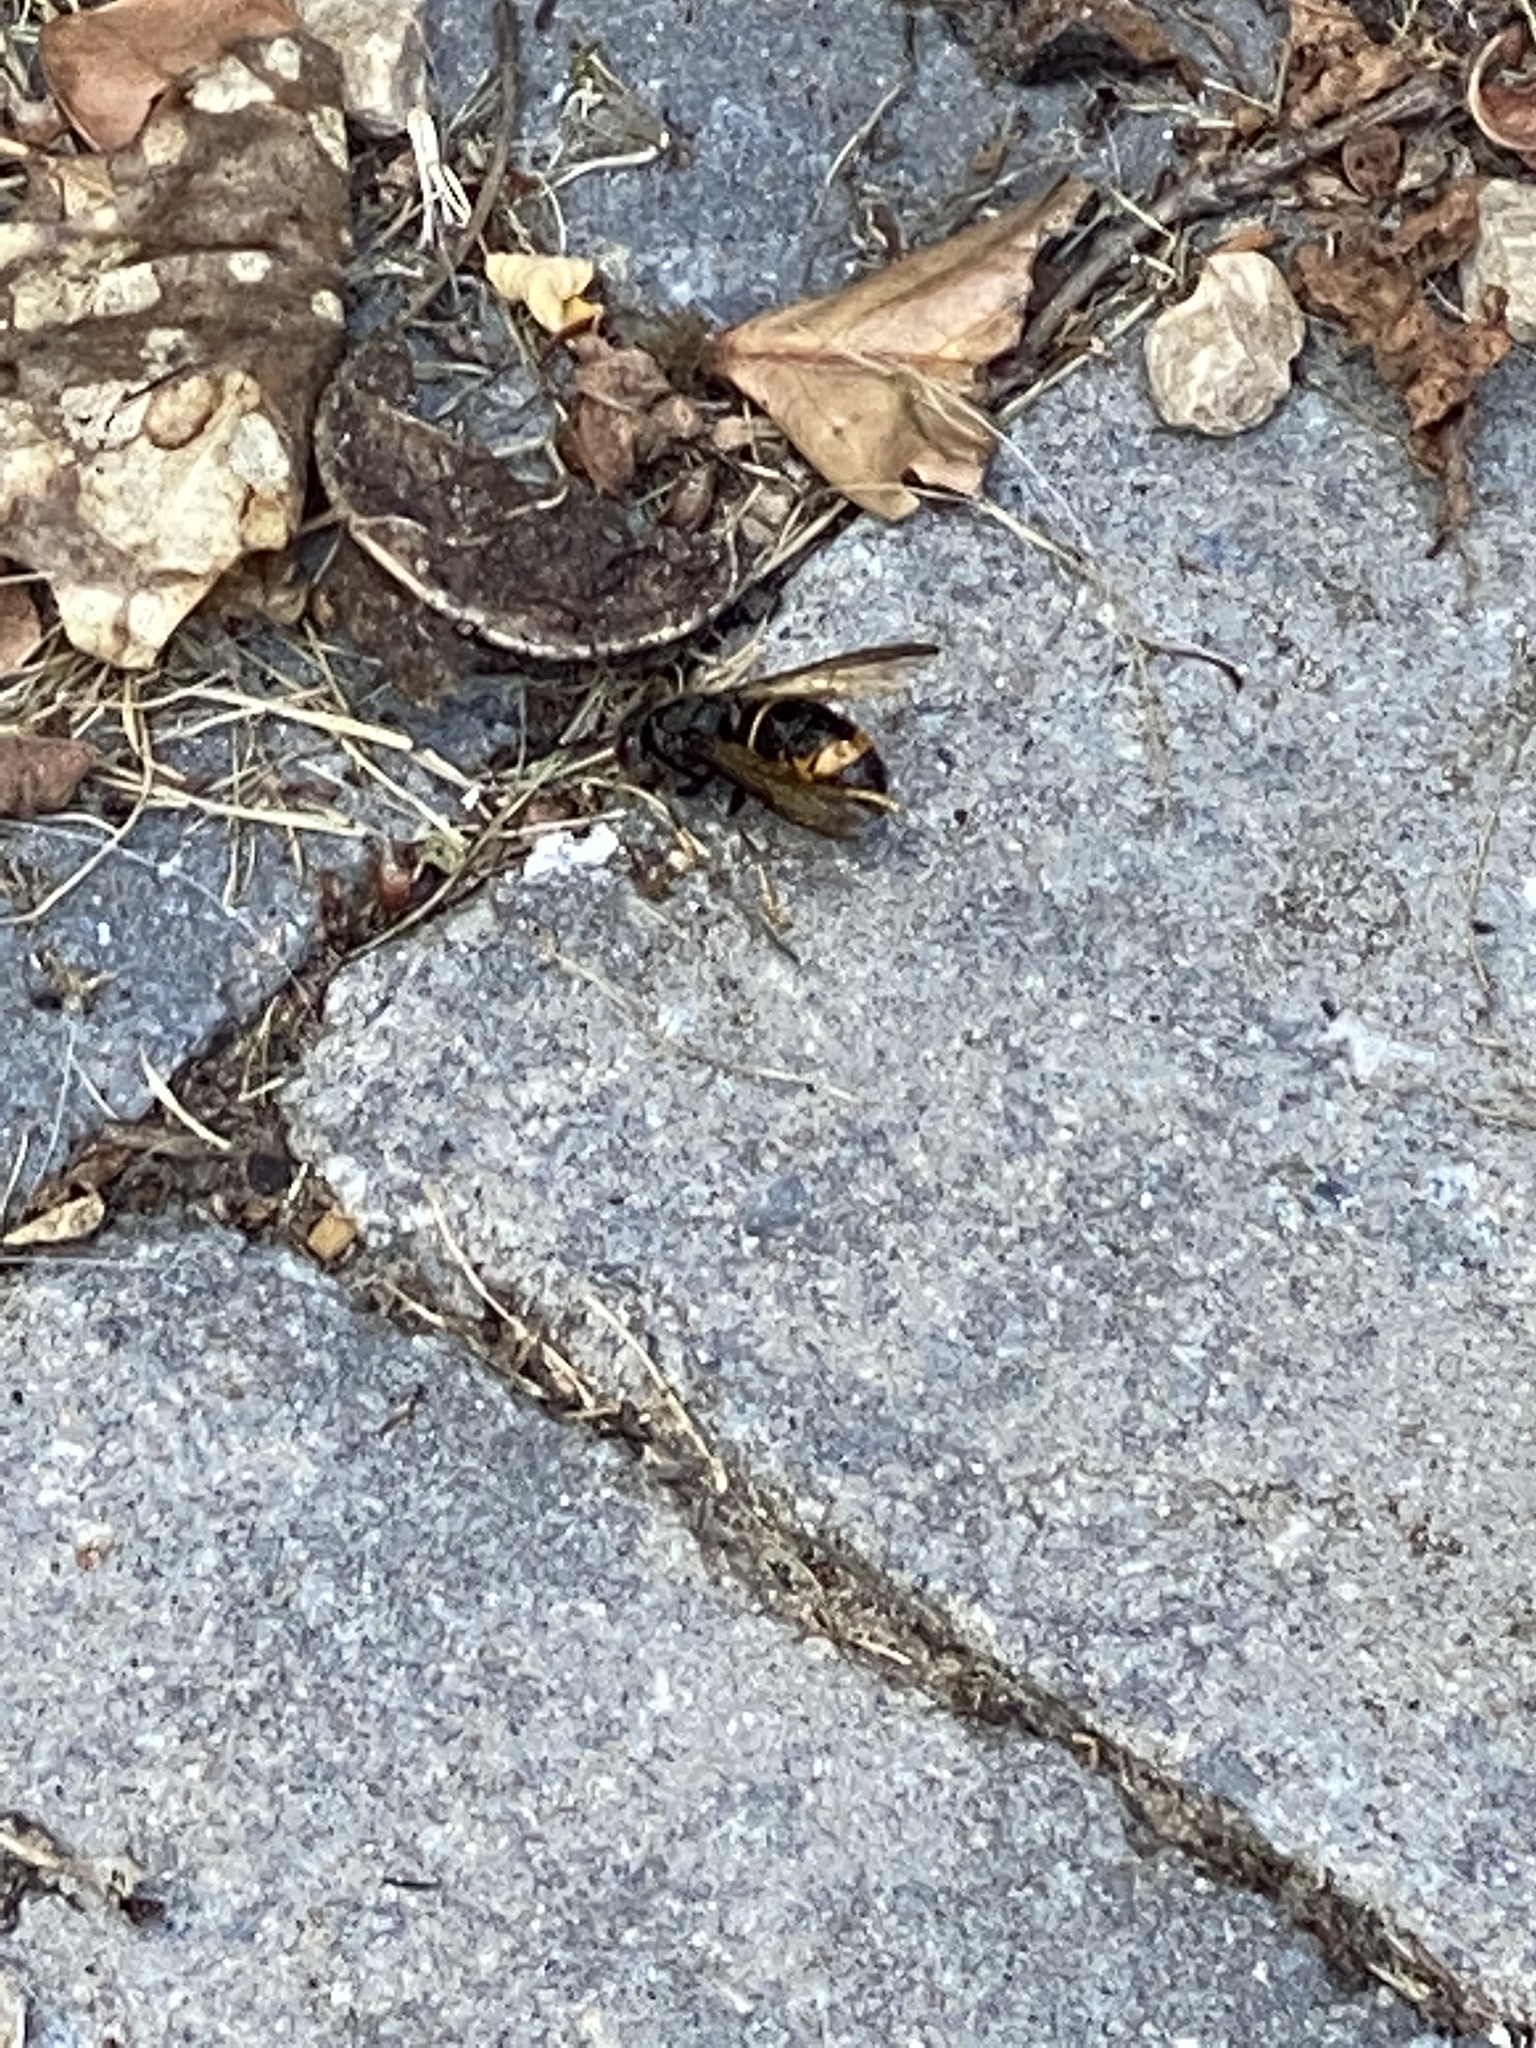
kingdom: Animalia
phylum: Arthropoda
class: Insecta
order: Hymenoptera
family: Vespidae
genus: Vespa
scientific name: Vespa velutina
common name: Asian hornet
